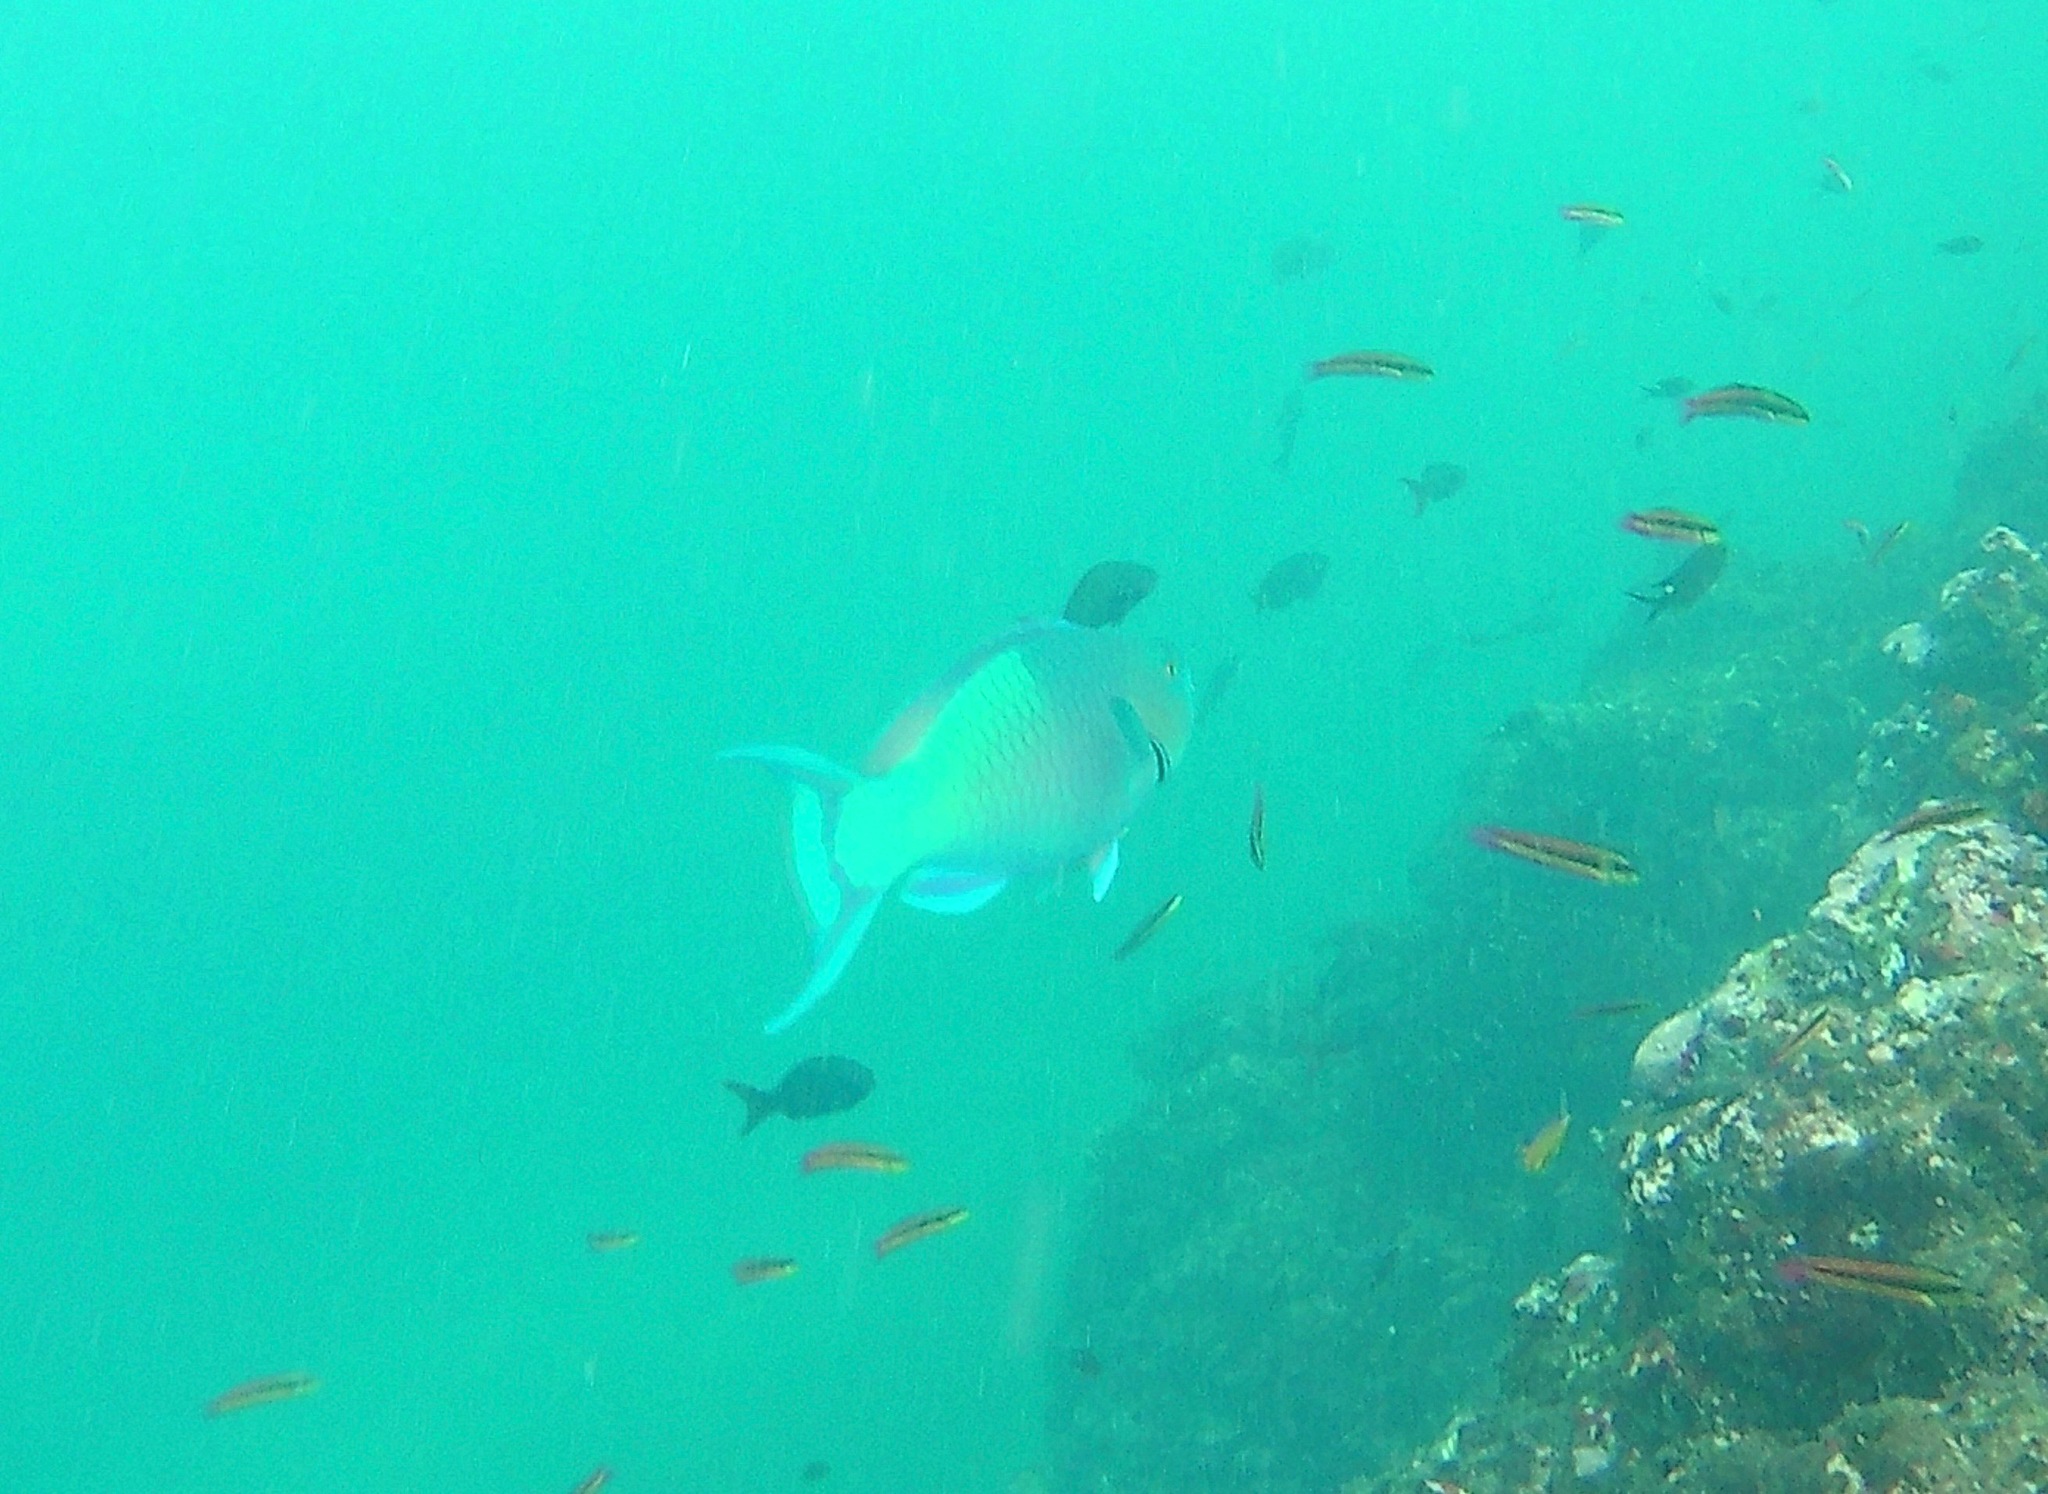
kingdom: Animalia
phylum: Chordata
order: Perciformes
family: Scaridae
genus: Scarus
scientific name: Scarus rubroviolaceus
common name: Ember parrotfish
